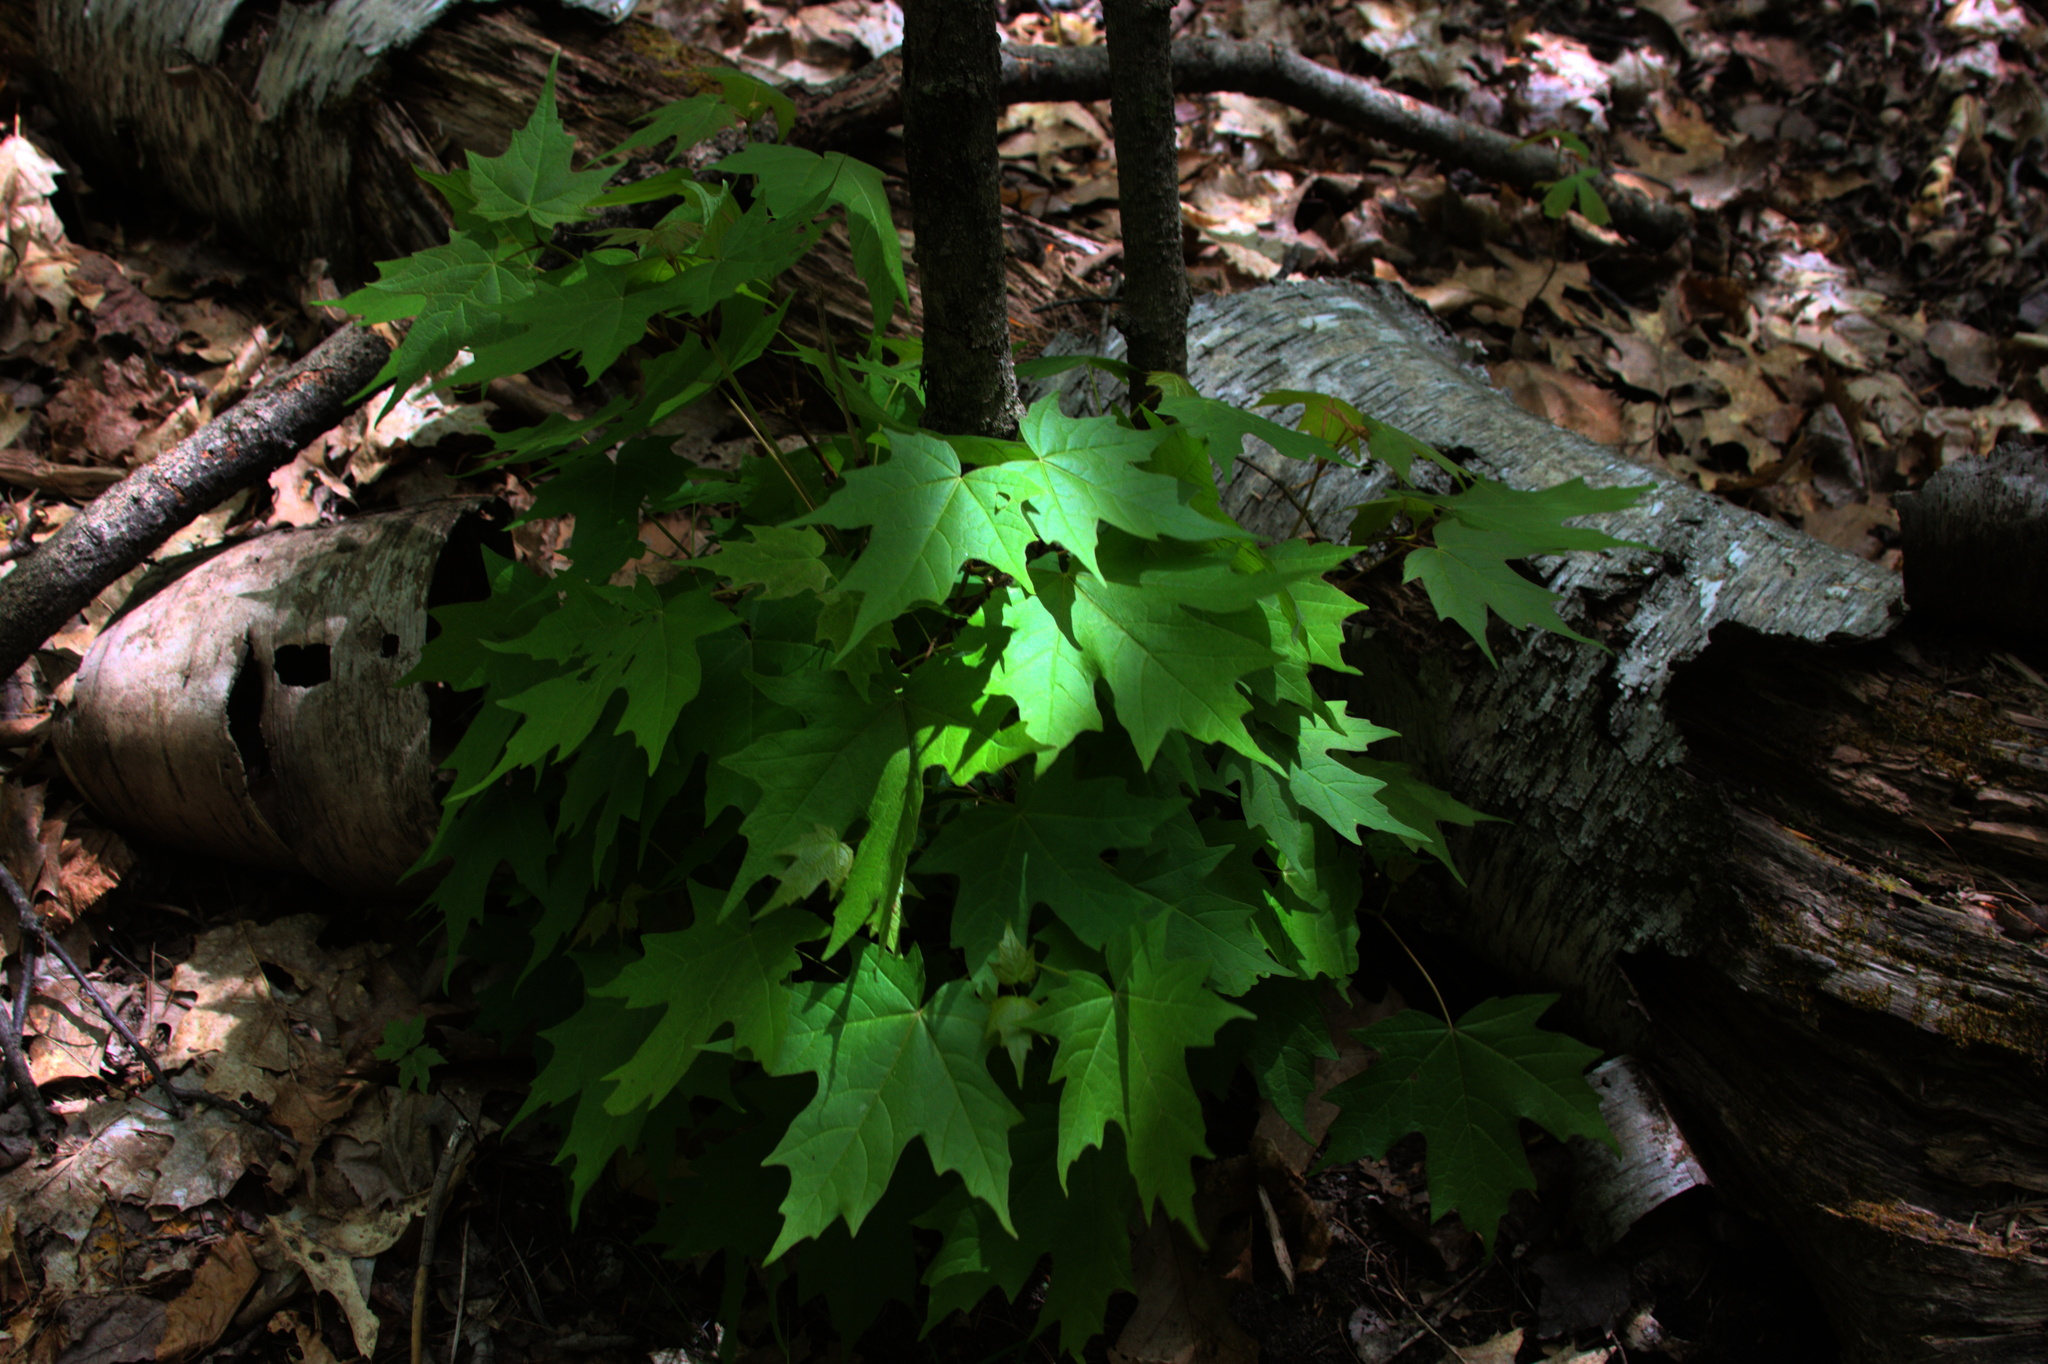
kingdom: Plantae
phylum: Tracheophyta
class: Magnoliopsida
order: Sapindales
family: Sapindaceae
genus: Acer
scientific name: Acer saccharum
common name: Sugar maple
